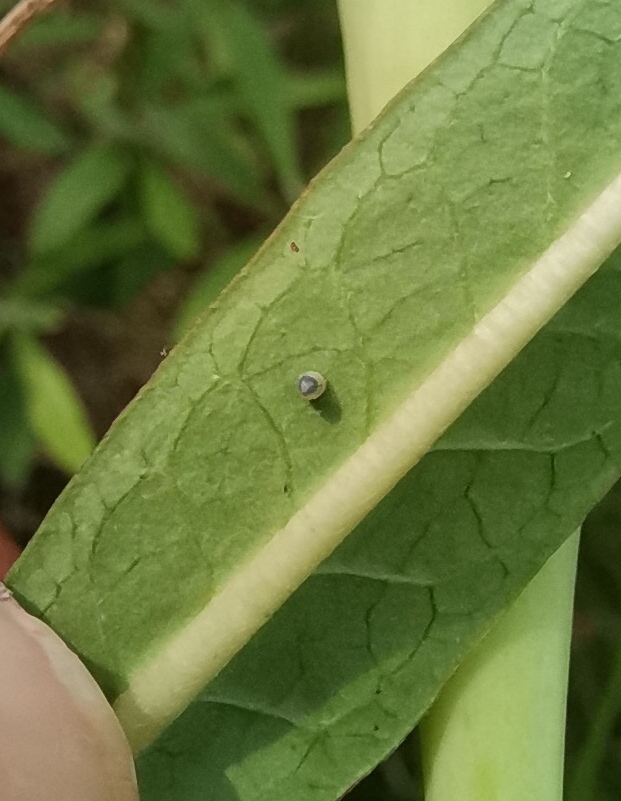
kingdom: Animalia
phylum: Arthropoda
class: Insecta
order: Lepidoptera
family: Nymphalidae
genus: Danaus
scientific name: Danaus plexippus
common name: Monarch
